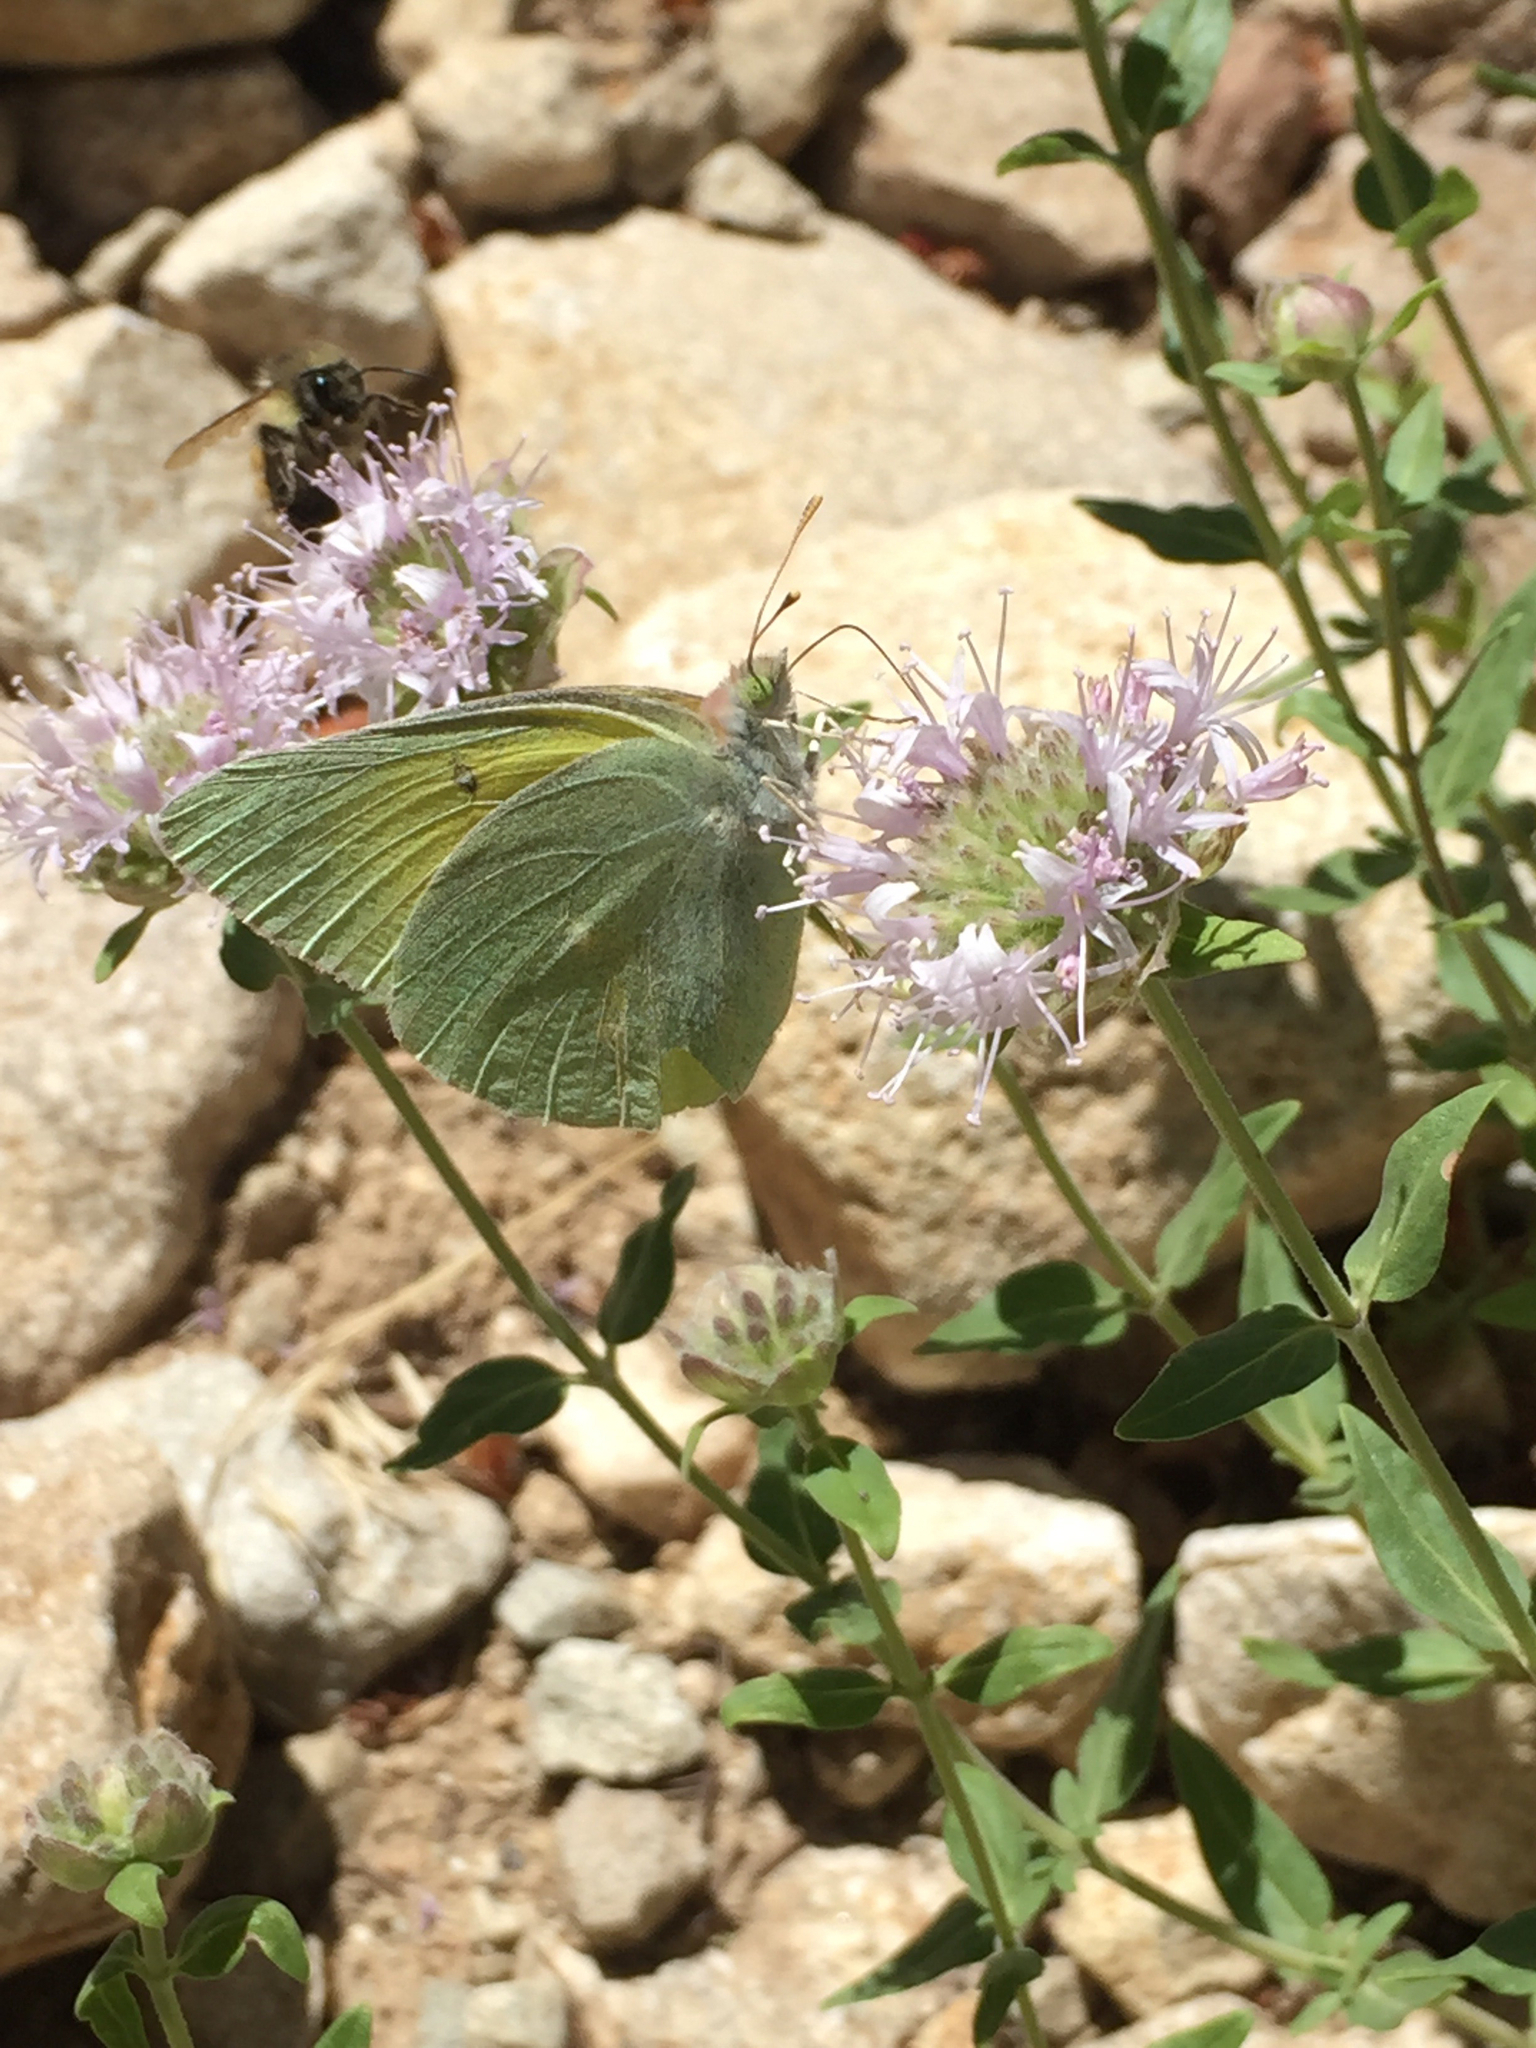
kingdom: Animalia
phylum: Arthropoda
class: Insecta
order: Lepidoptera
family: Pieridae
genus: Colias
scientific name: Colias alexandra
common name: Alexandra sulphur
